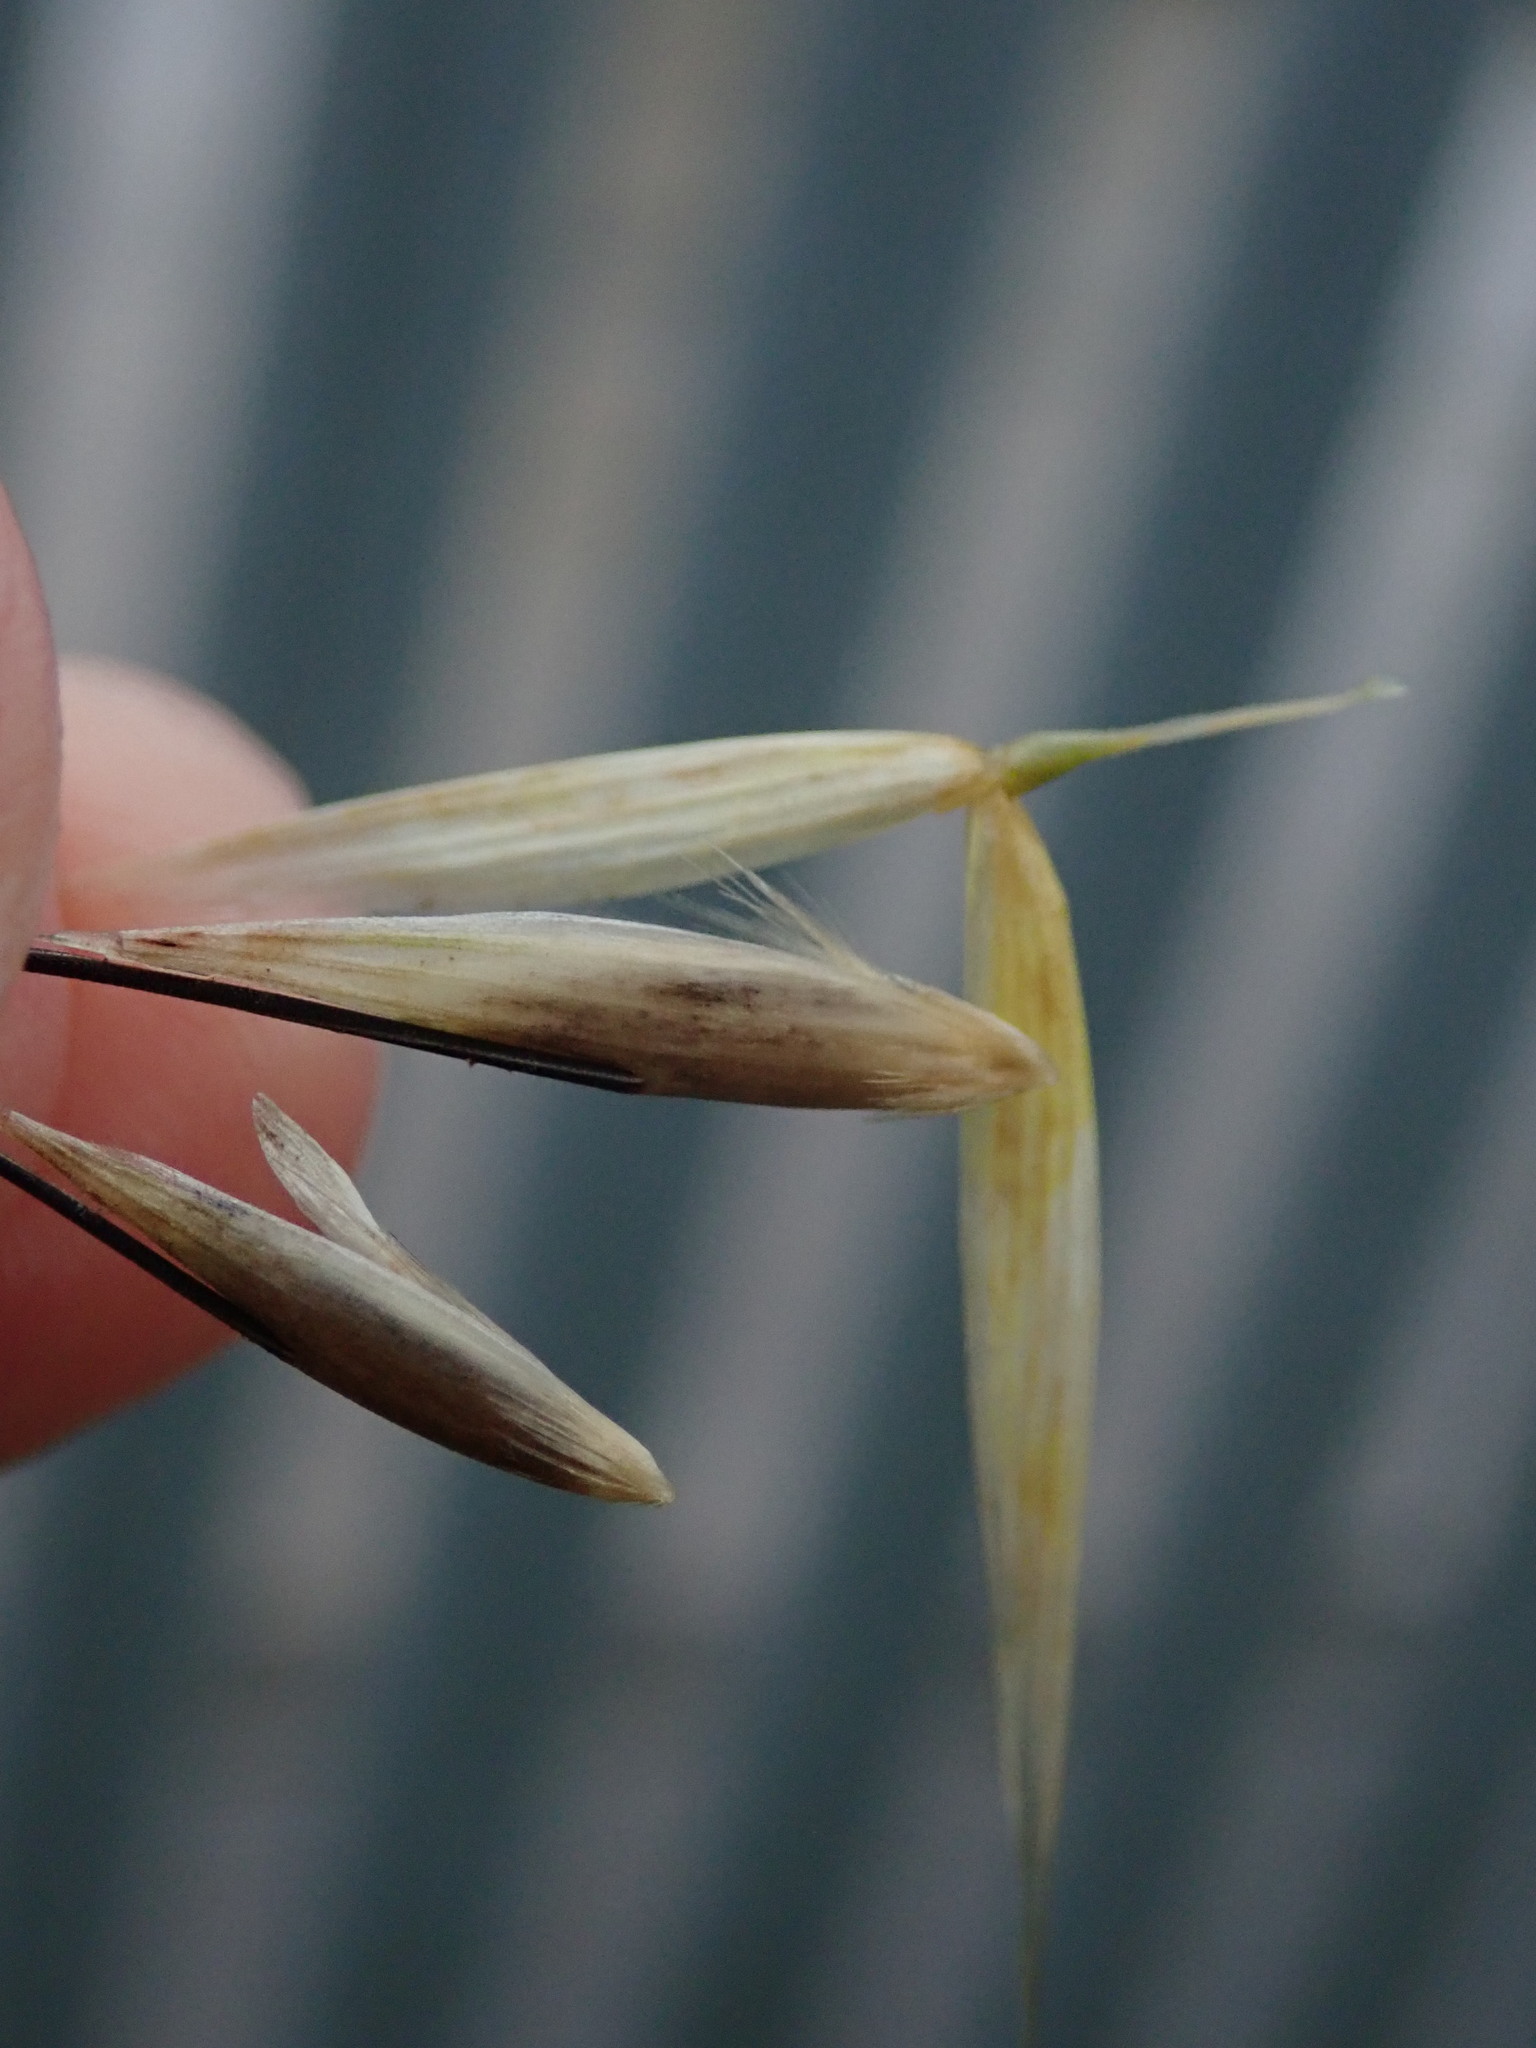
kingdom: Plantae
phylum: Tracheophyta
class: Liliopsida
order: Poales
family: Poaceae
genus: Avena
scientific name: Avena fatua
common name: Wild oat
